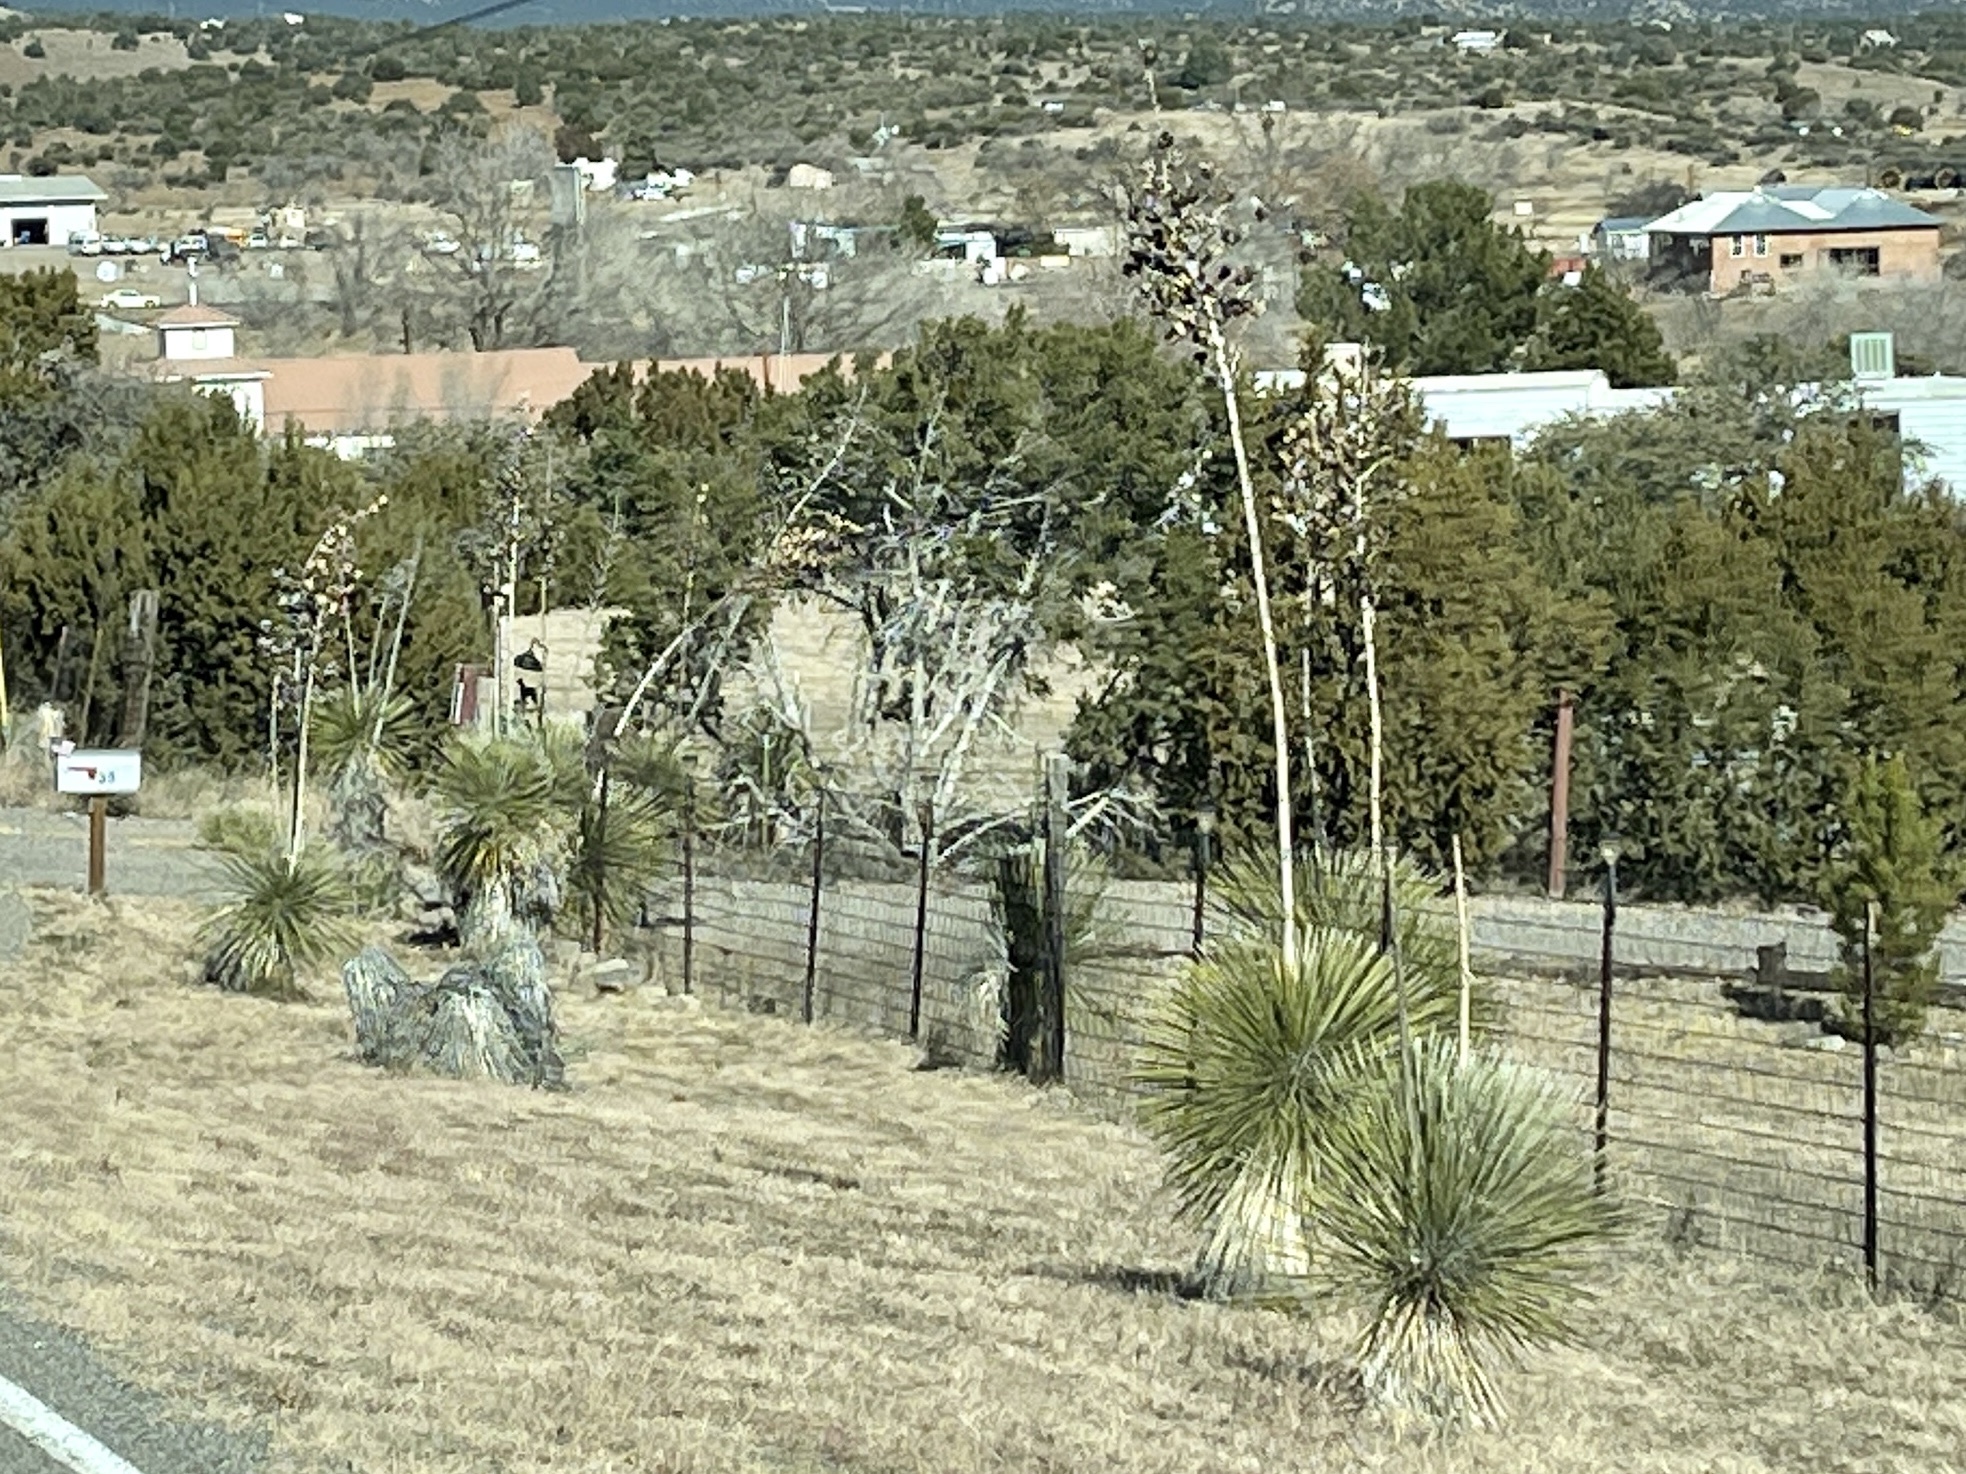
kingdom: Plantae
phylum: Tracheophyta
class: Liliopsida
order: Asparagales
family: Asparagaceae
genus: Yucca
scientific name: Yucca elata
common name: Palmella
